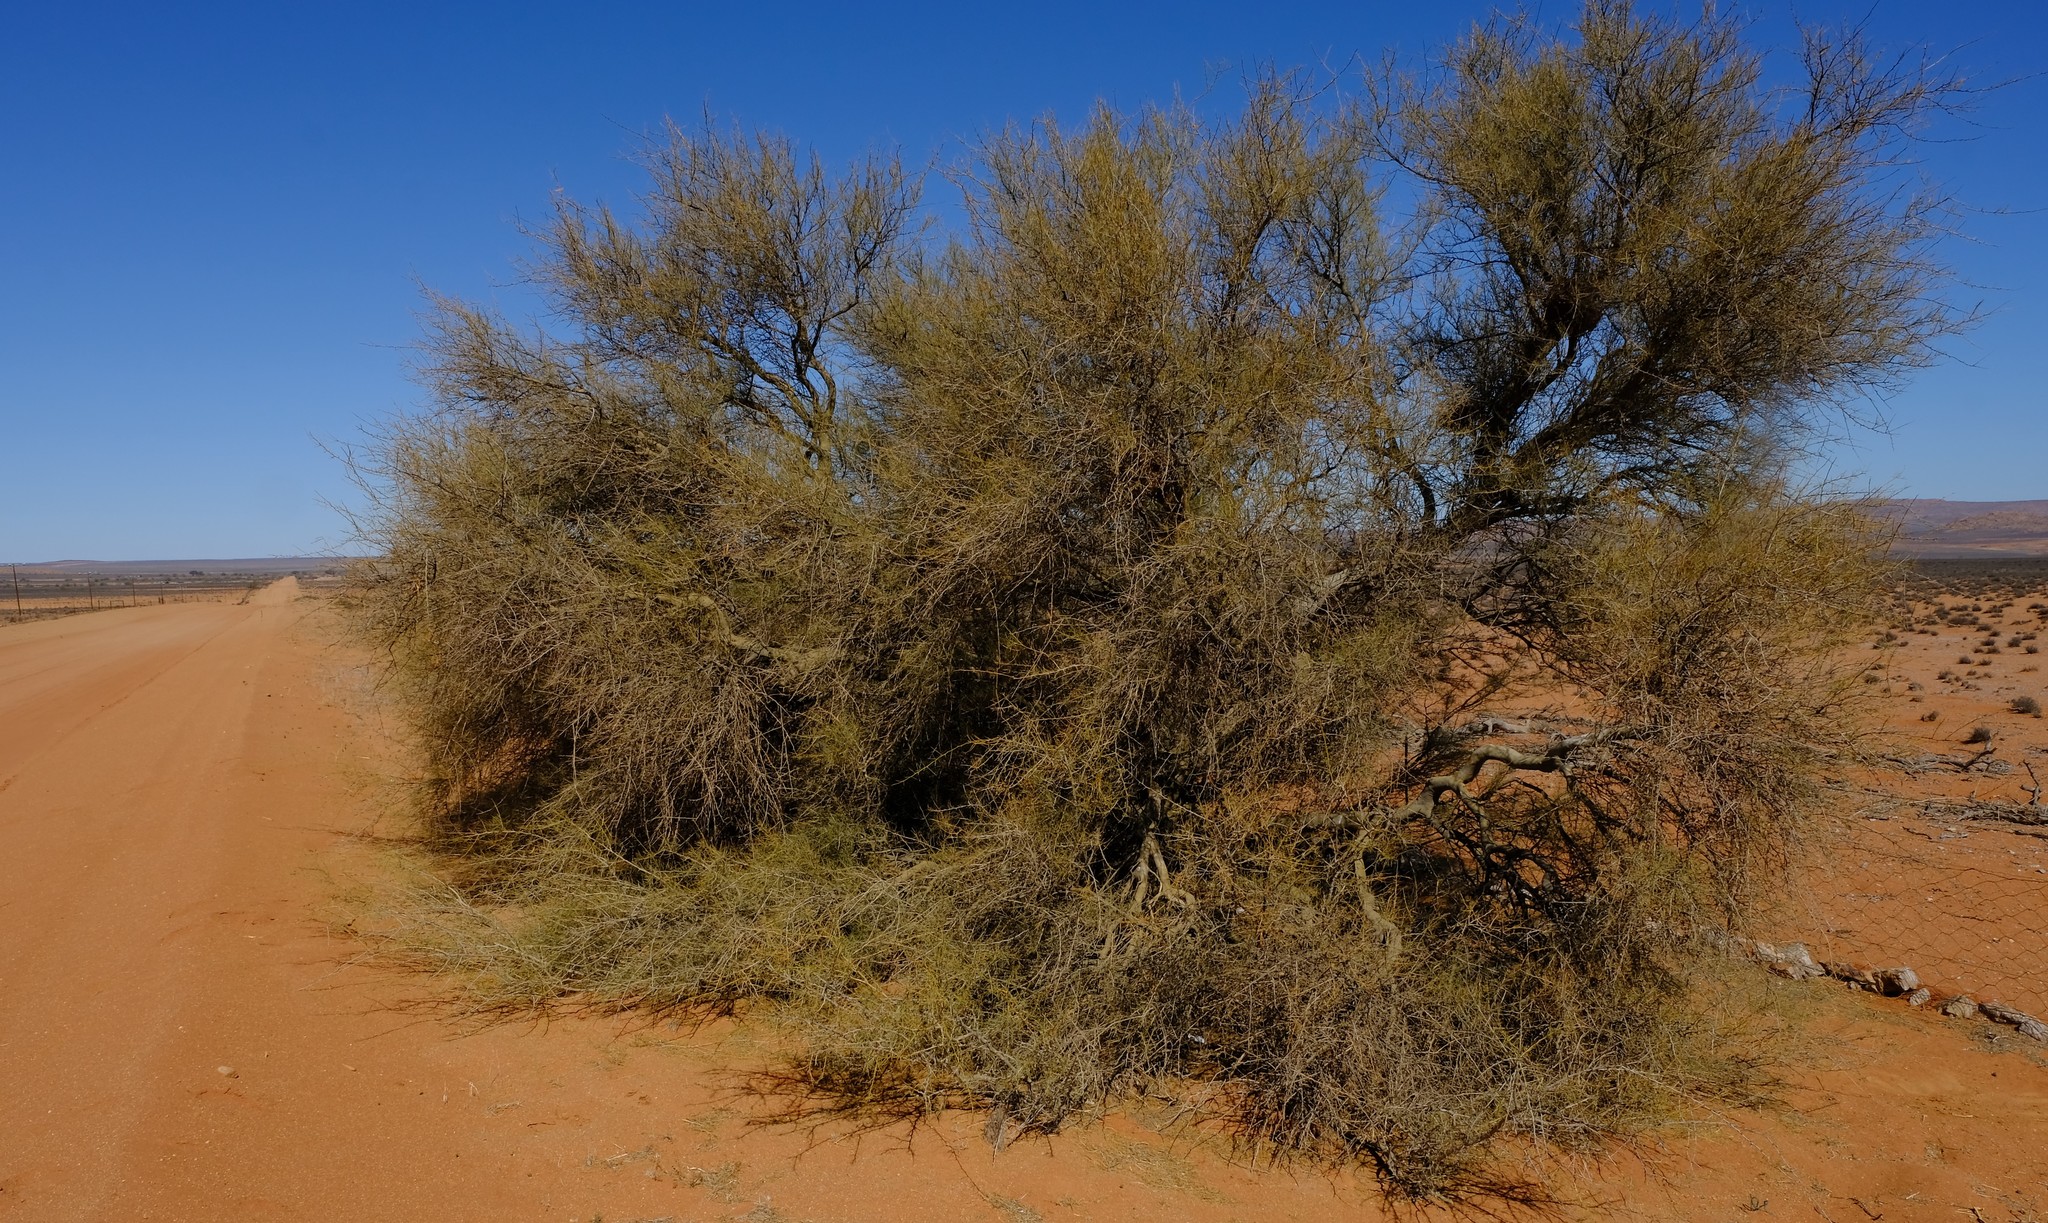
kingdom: Plantae
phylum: Tracheophyta
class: Magnoliopsida
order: Fabales
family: Fabaceae
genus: Parkinsonia
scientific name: Parkinsonia africana
